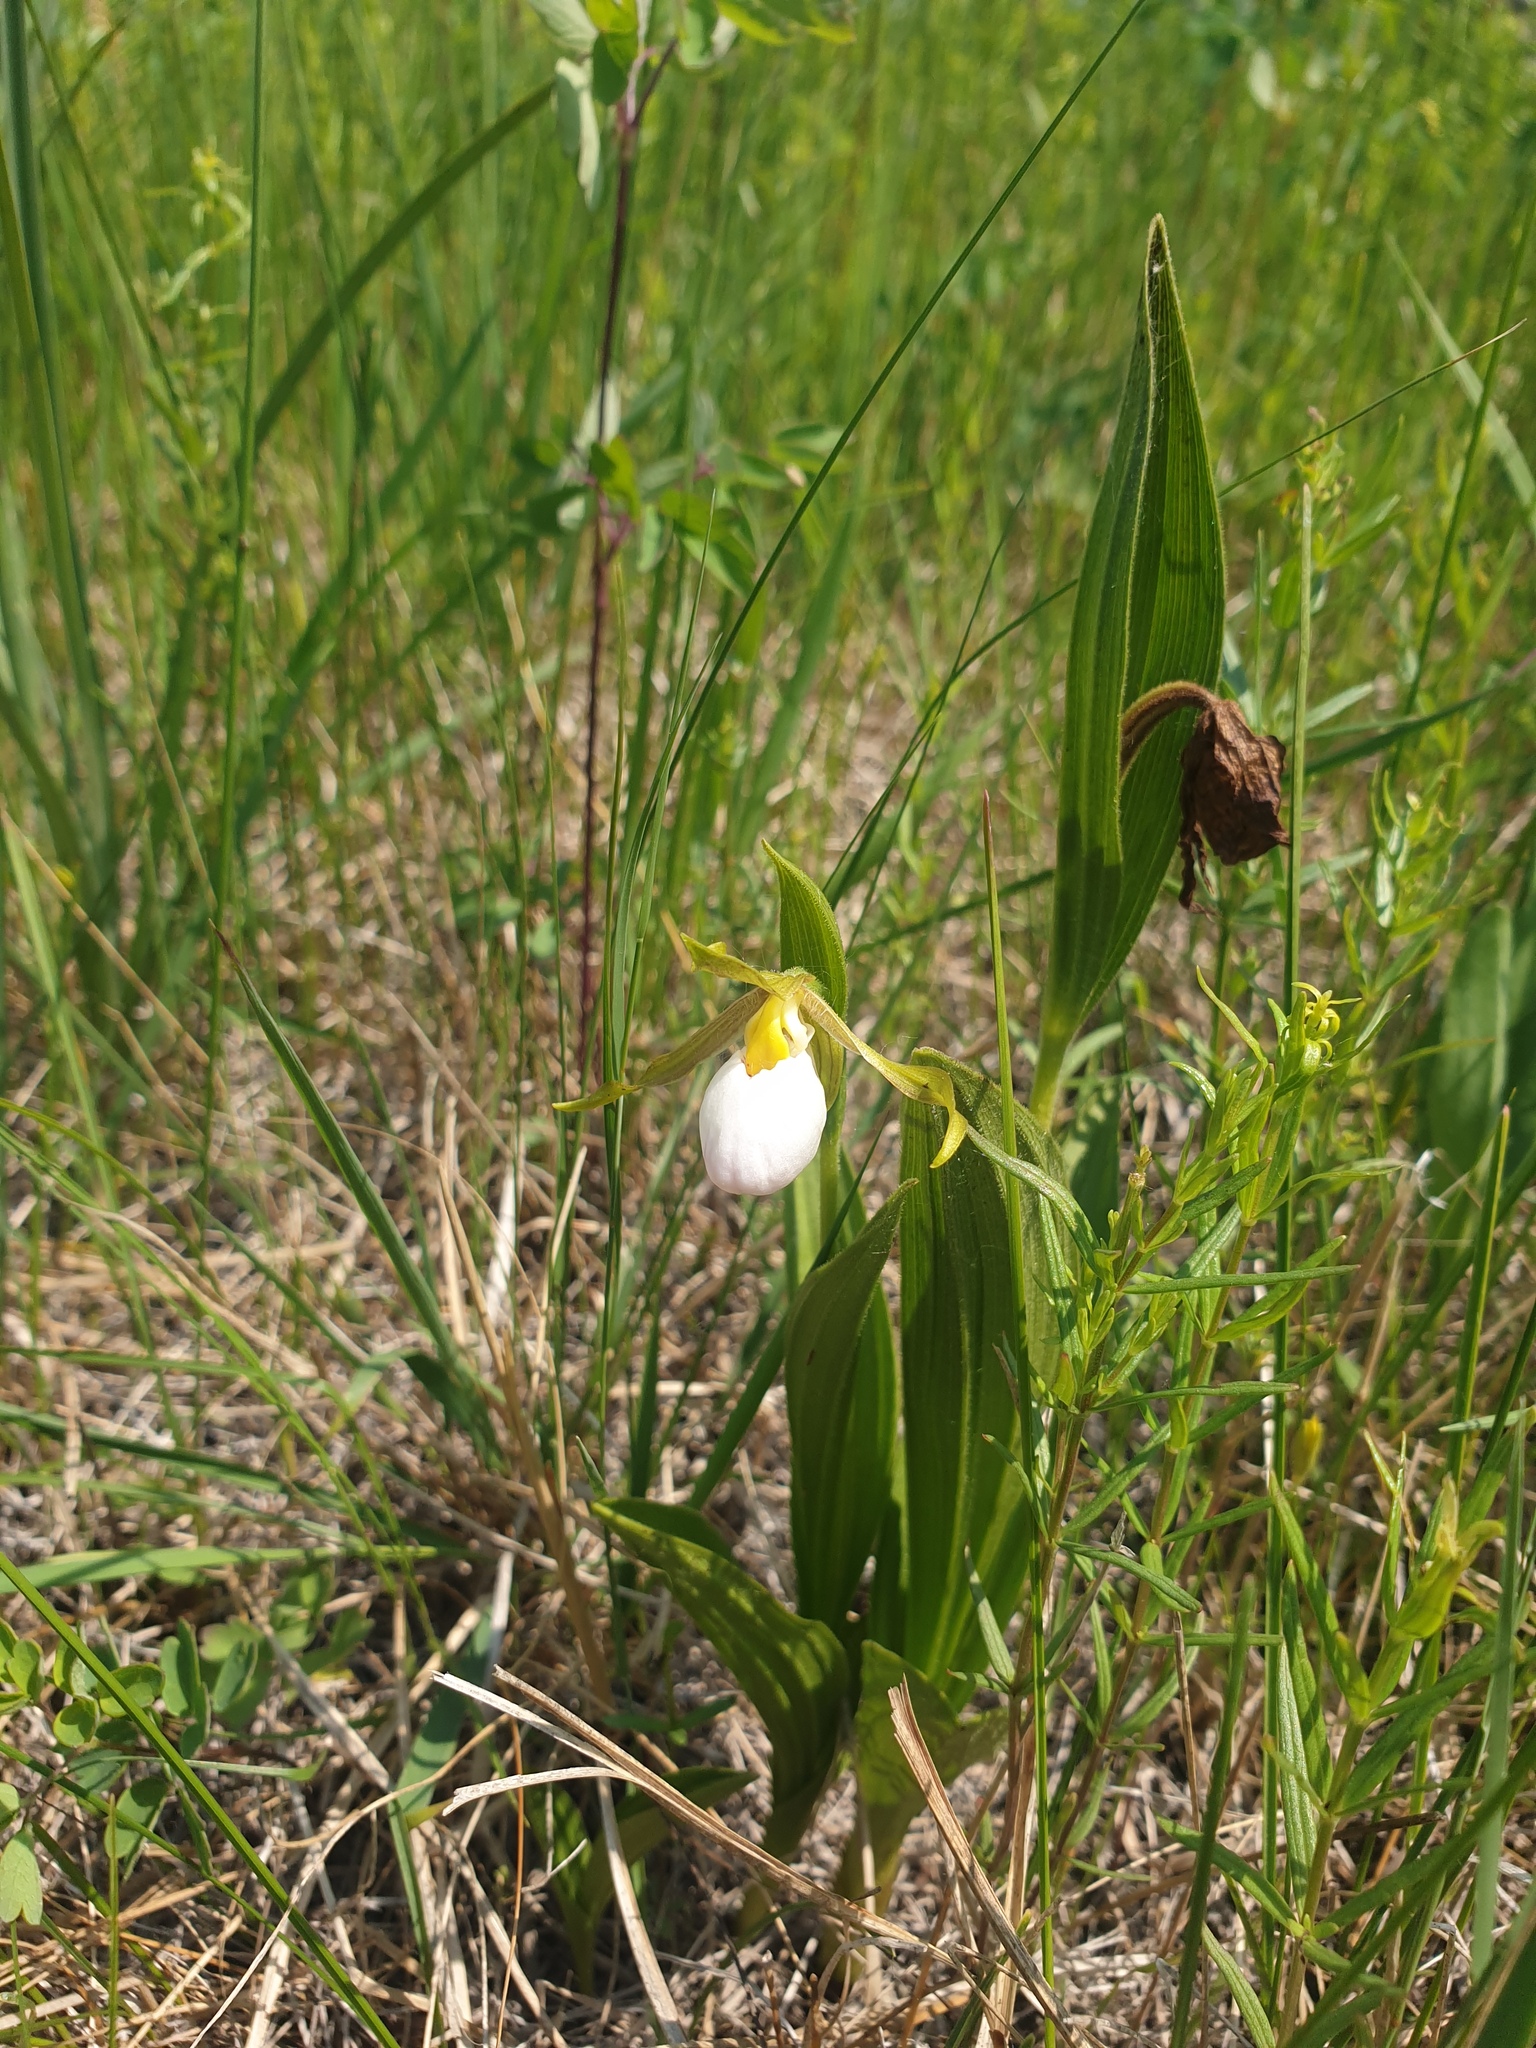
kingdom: Plantae
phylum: Tracheophyta
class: Liliopsida
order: Asparagales
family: Orchidaceae
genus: Cypripedium
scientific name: Cypripedium candidum
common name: White lady's-slipper
